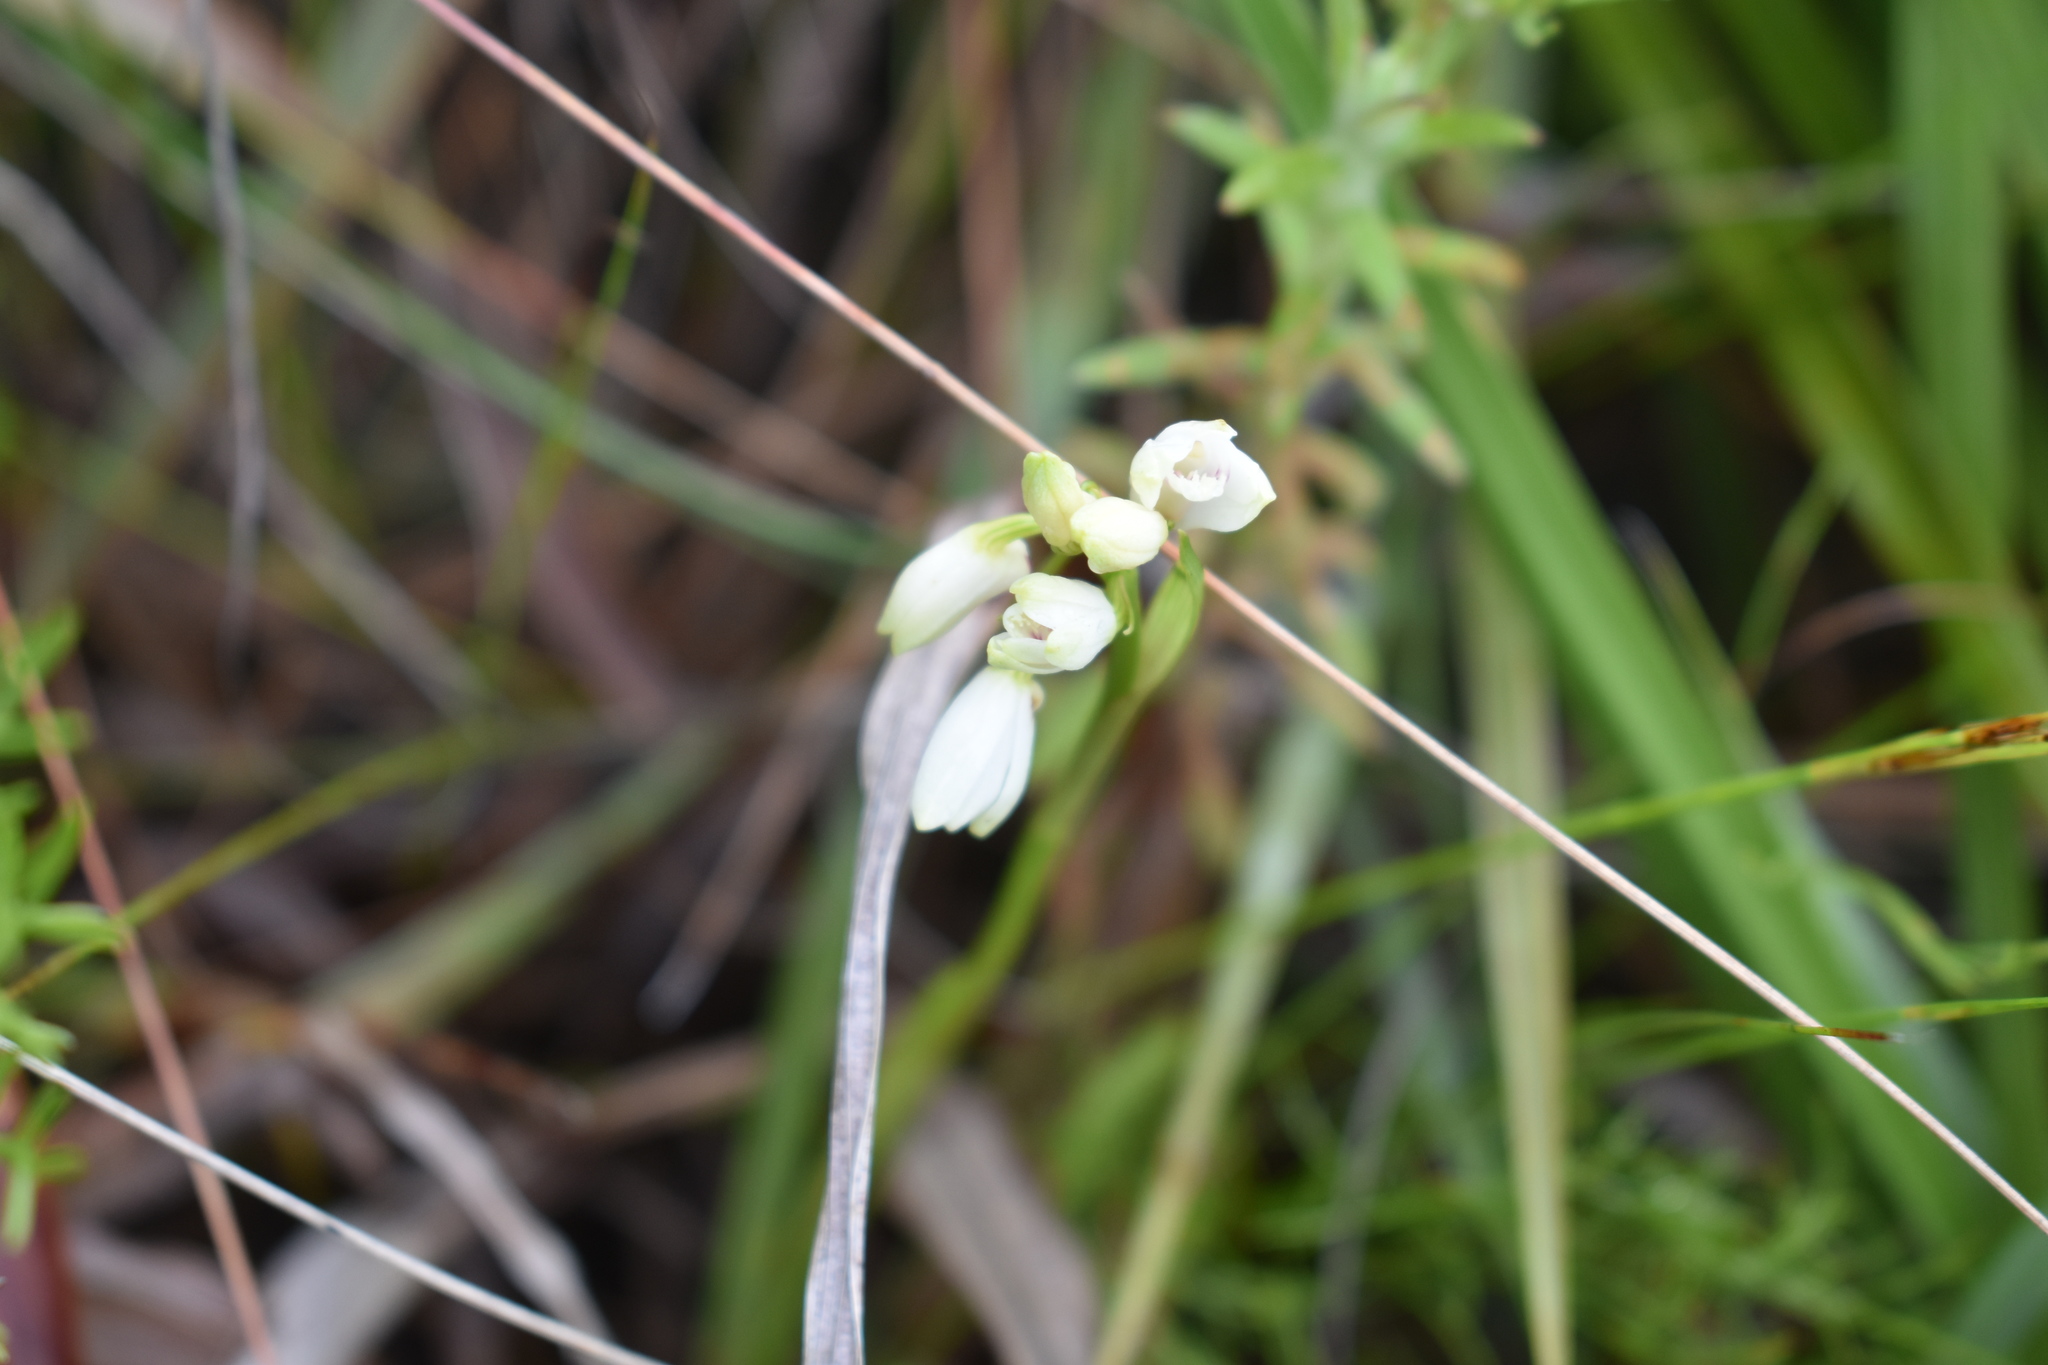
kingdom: Plantae
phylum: Tracheophyta
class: Liliopsida
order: Asparagales
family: Orchidaceae
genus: Eulophia
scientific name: Eulophia aculeata
